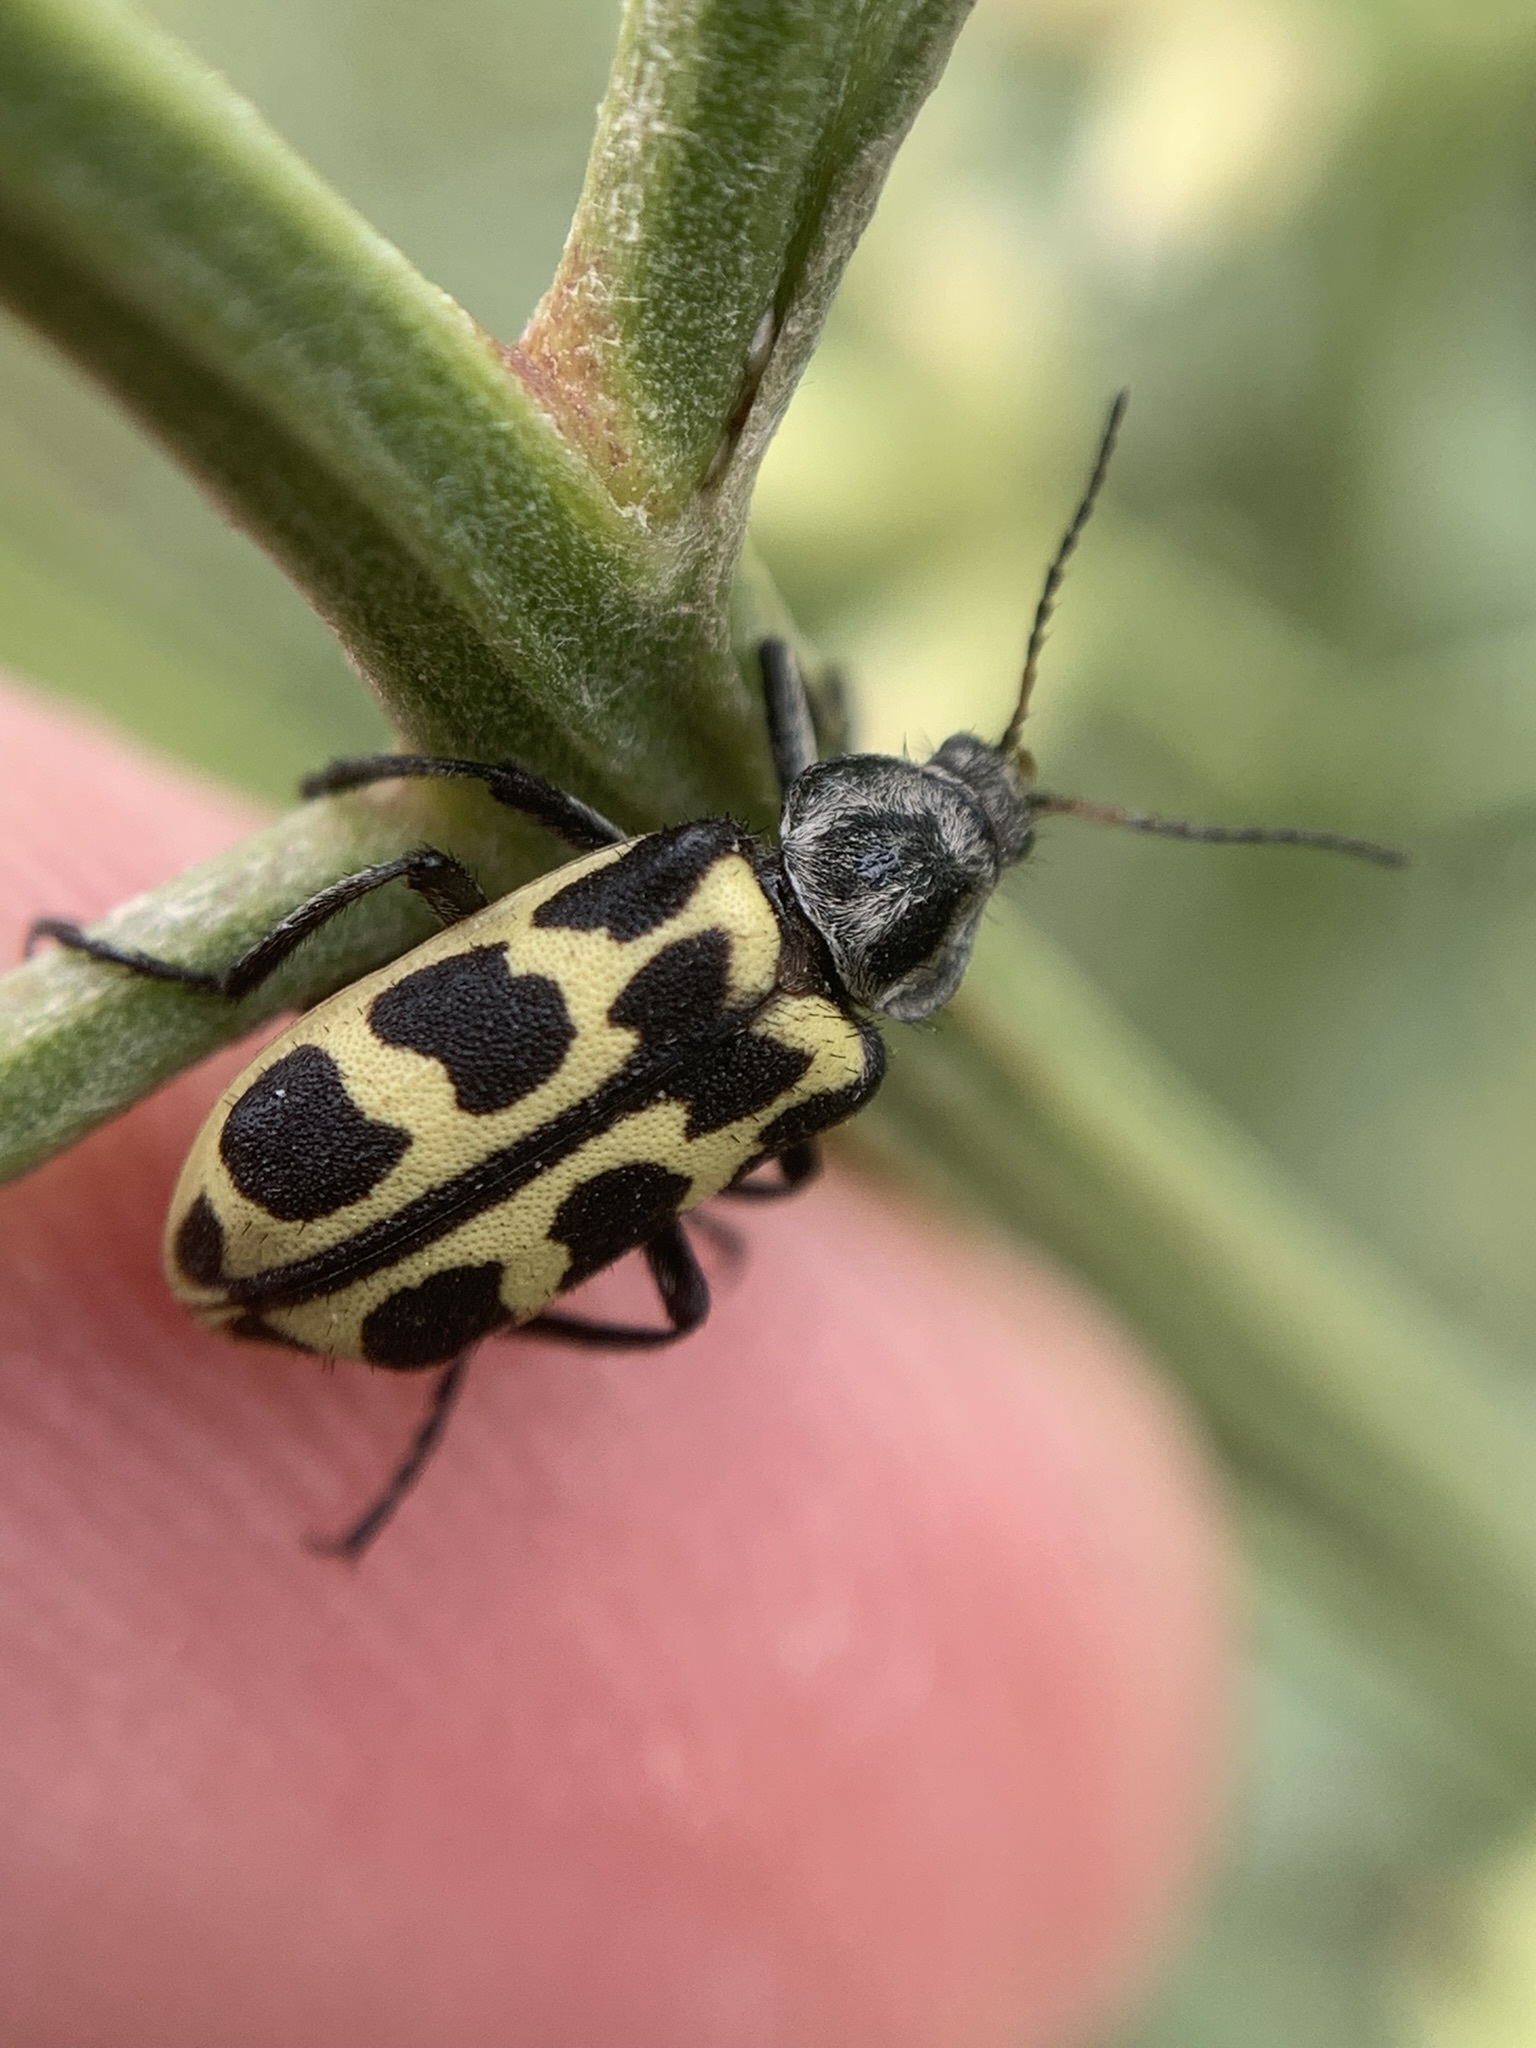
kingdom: Animalia
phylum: Arthropoda
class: Insecta
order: Coleoptera
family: Melyridae
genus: Astylus
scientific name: Astylus atromaculatus
